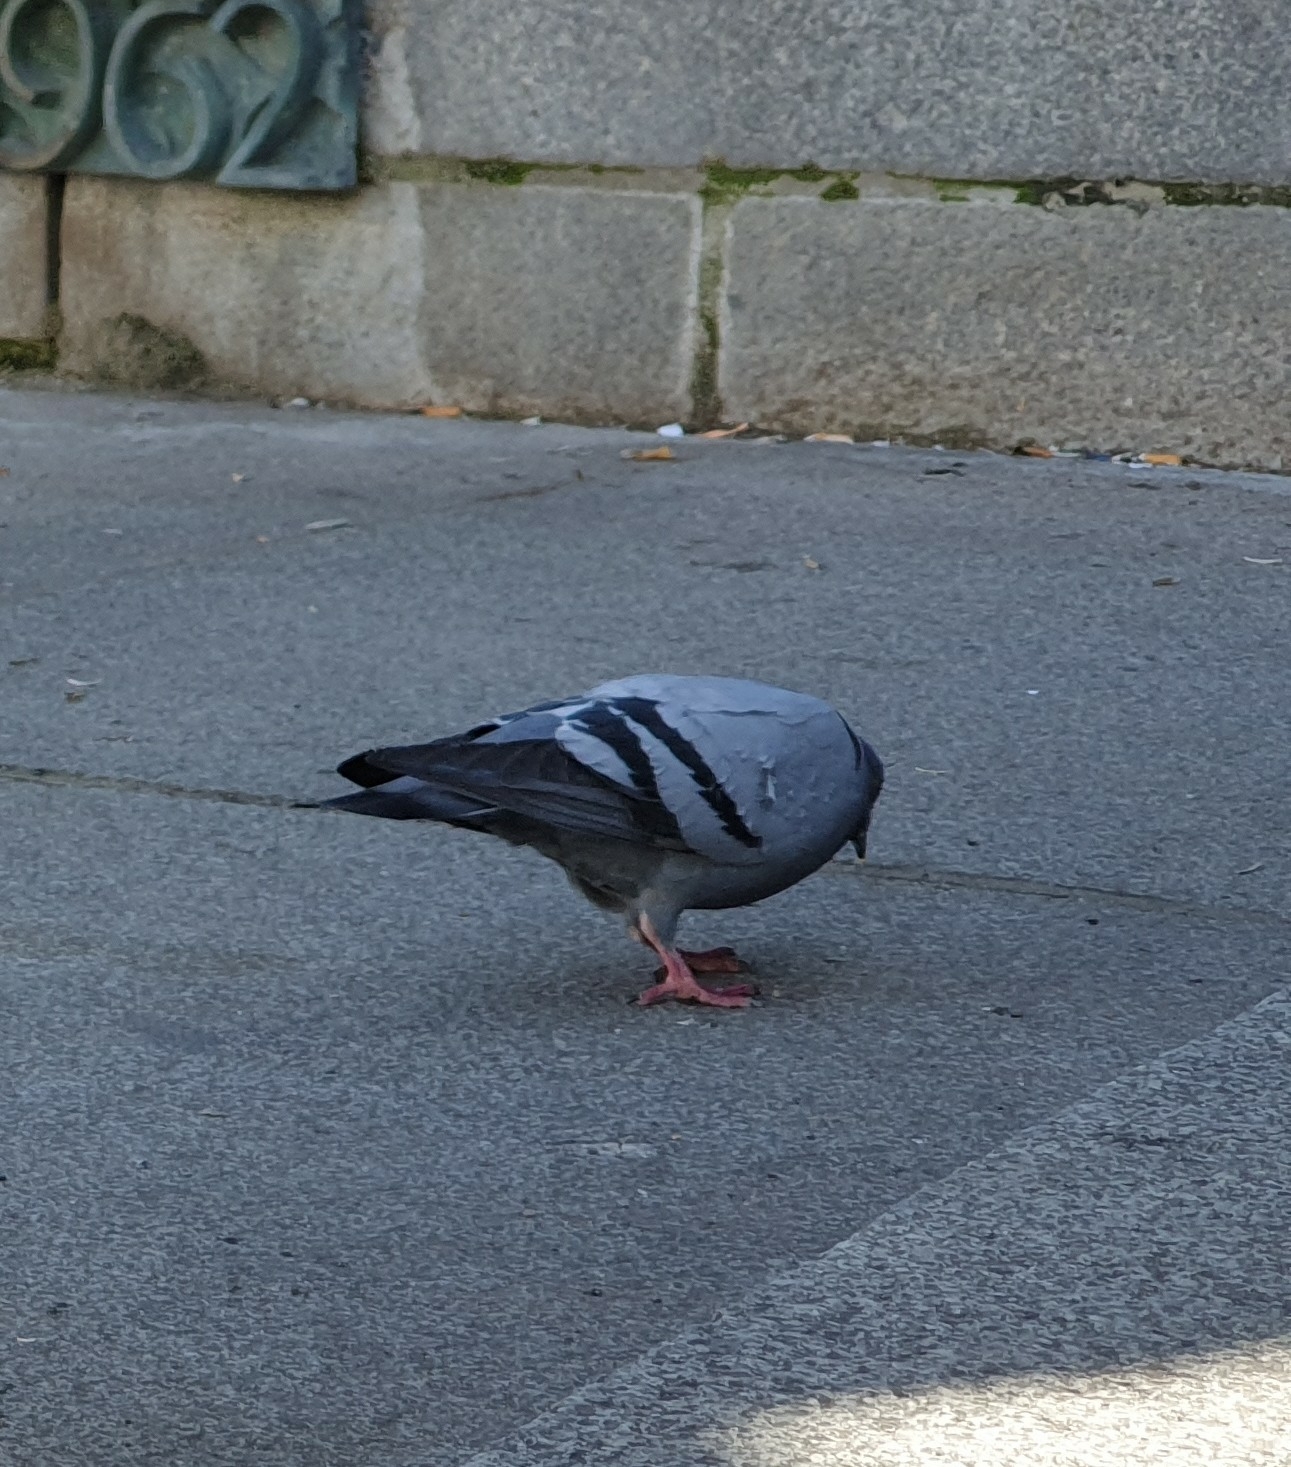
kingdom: Animalia
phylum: Chordata
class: Aves
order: Columbiformes
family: Columbidae
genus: Columba
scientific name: Columba livia
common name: Rock pigeon
